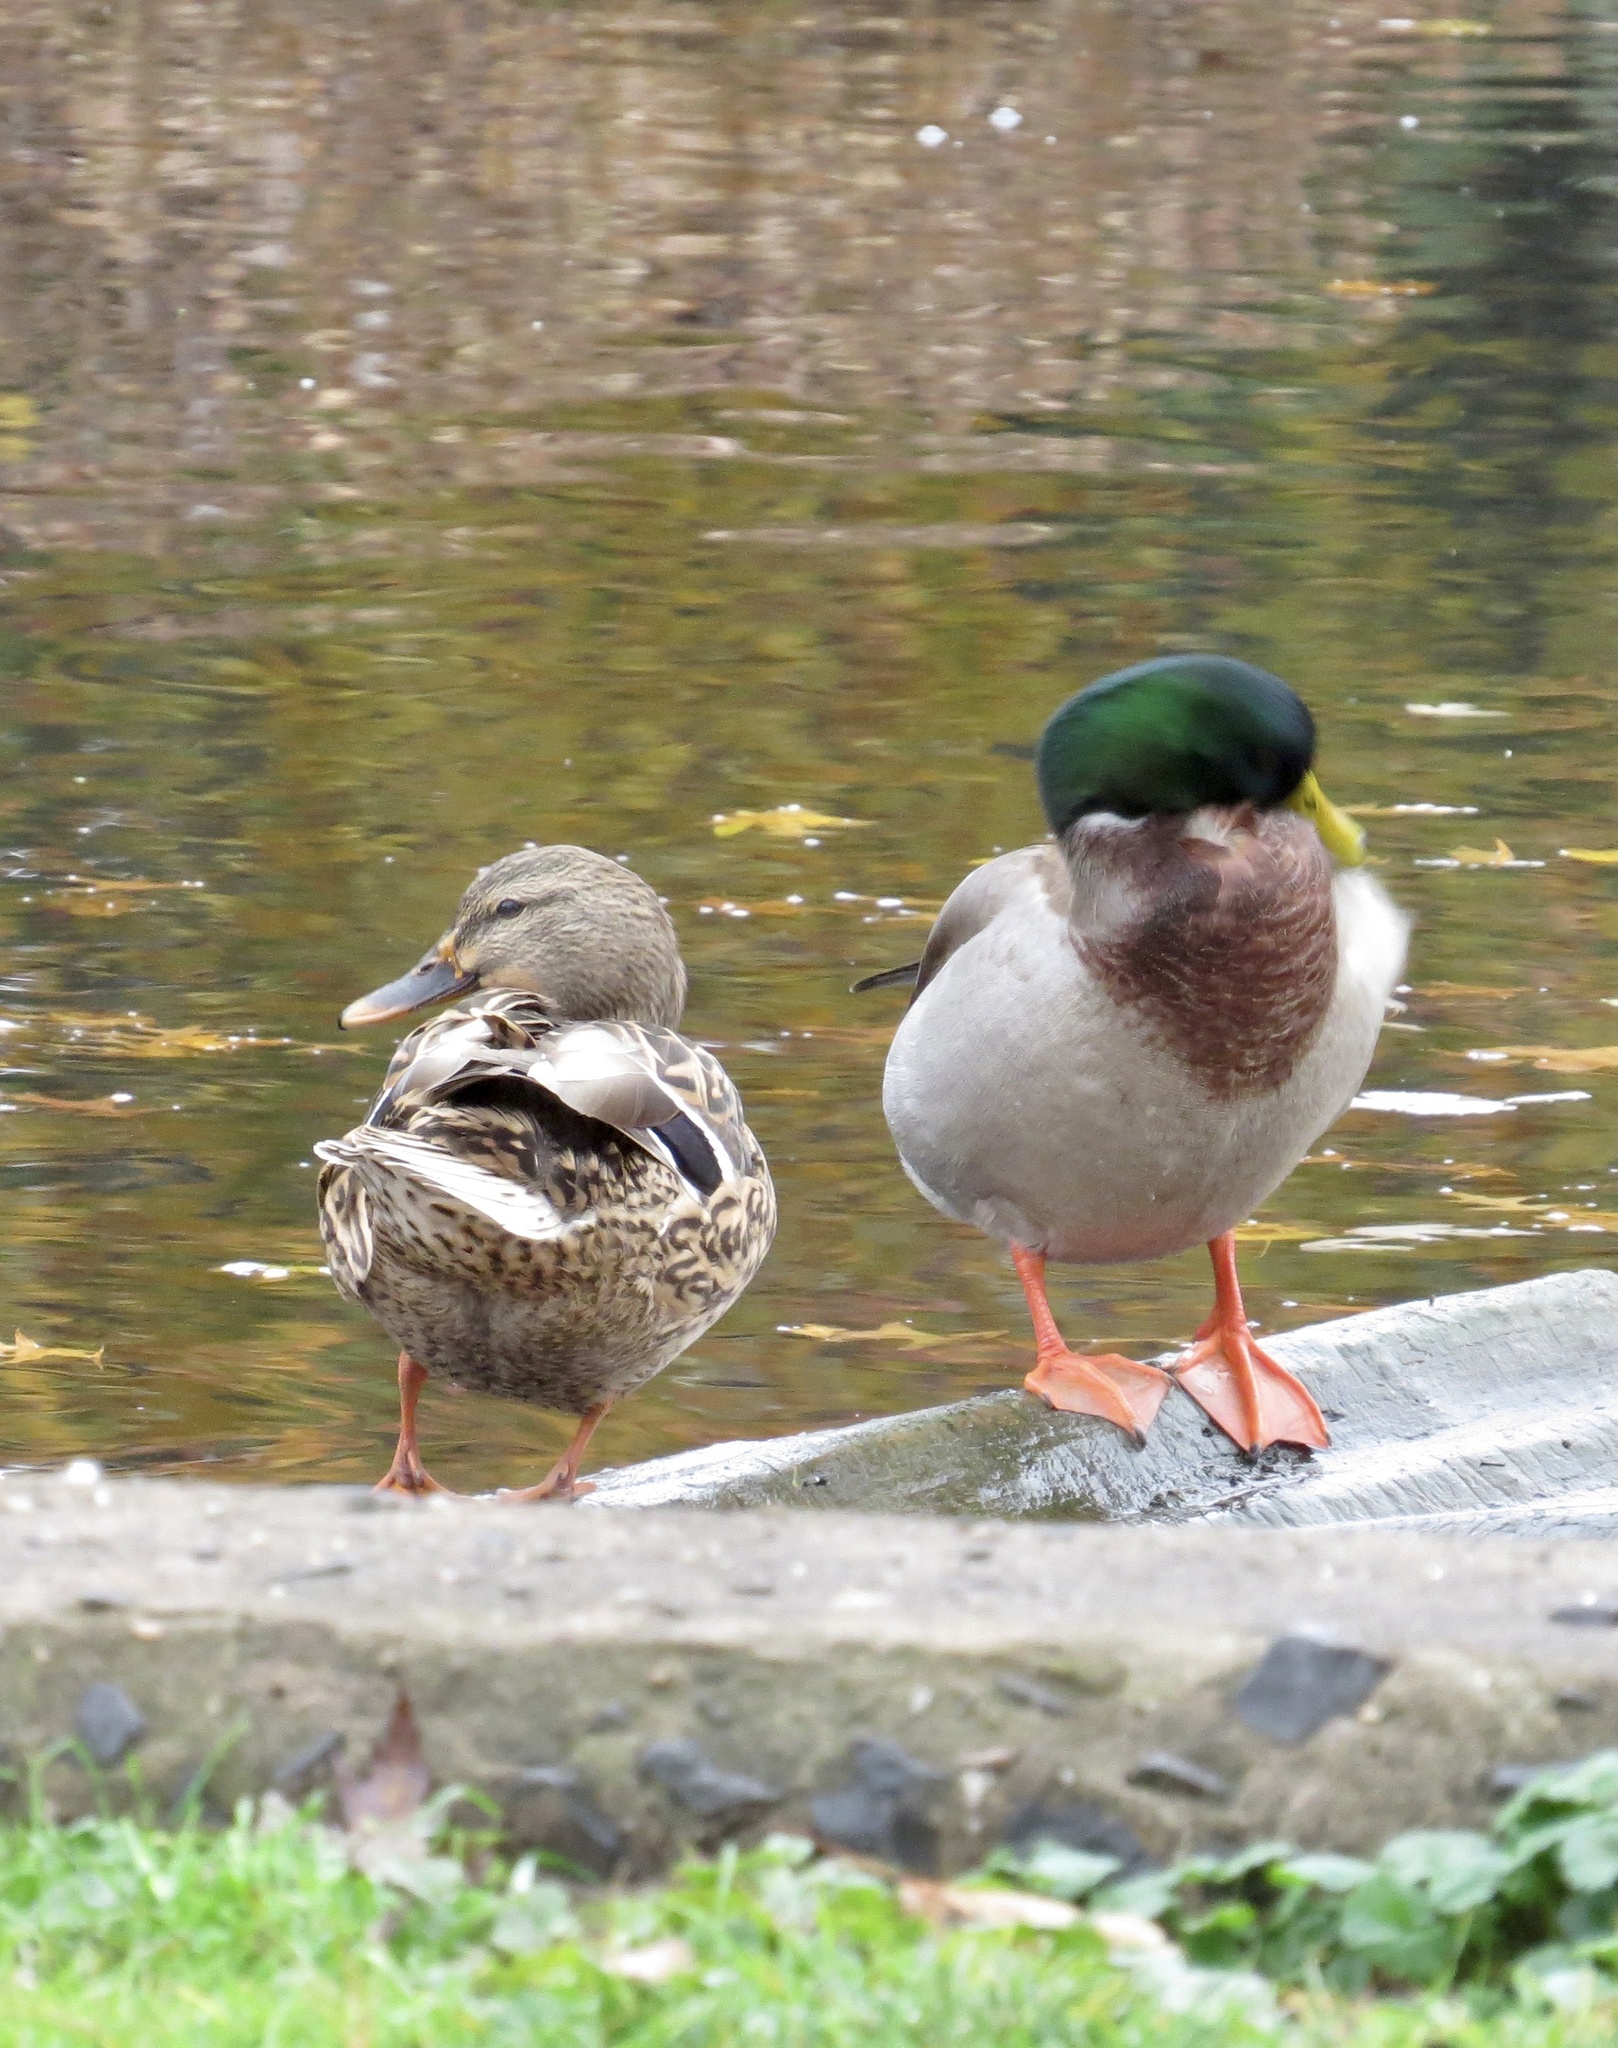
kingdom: Animalia
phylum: Chordata
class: Aves
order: Anseriformes
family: Anatidae
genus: Anas
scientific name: Anas platyrhynchos
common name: Mallard
